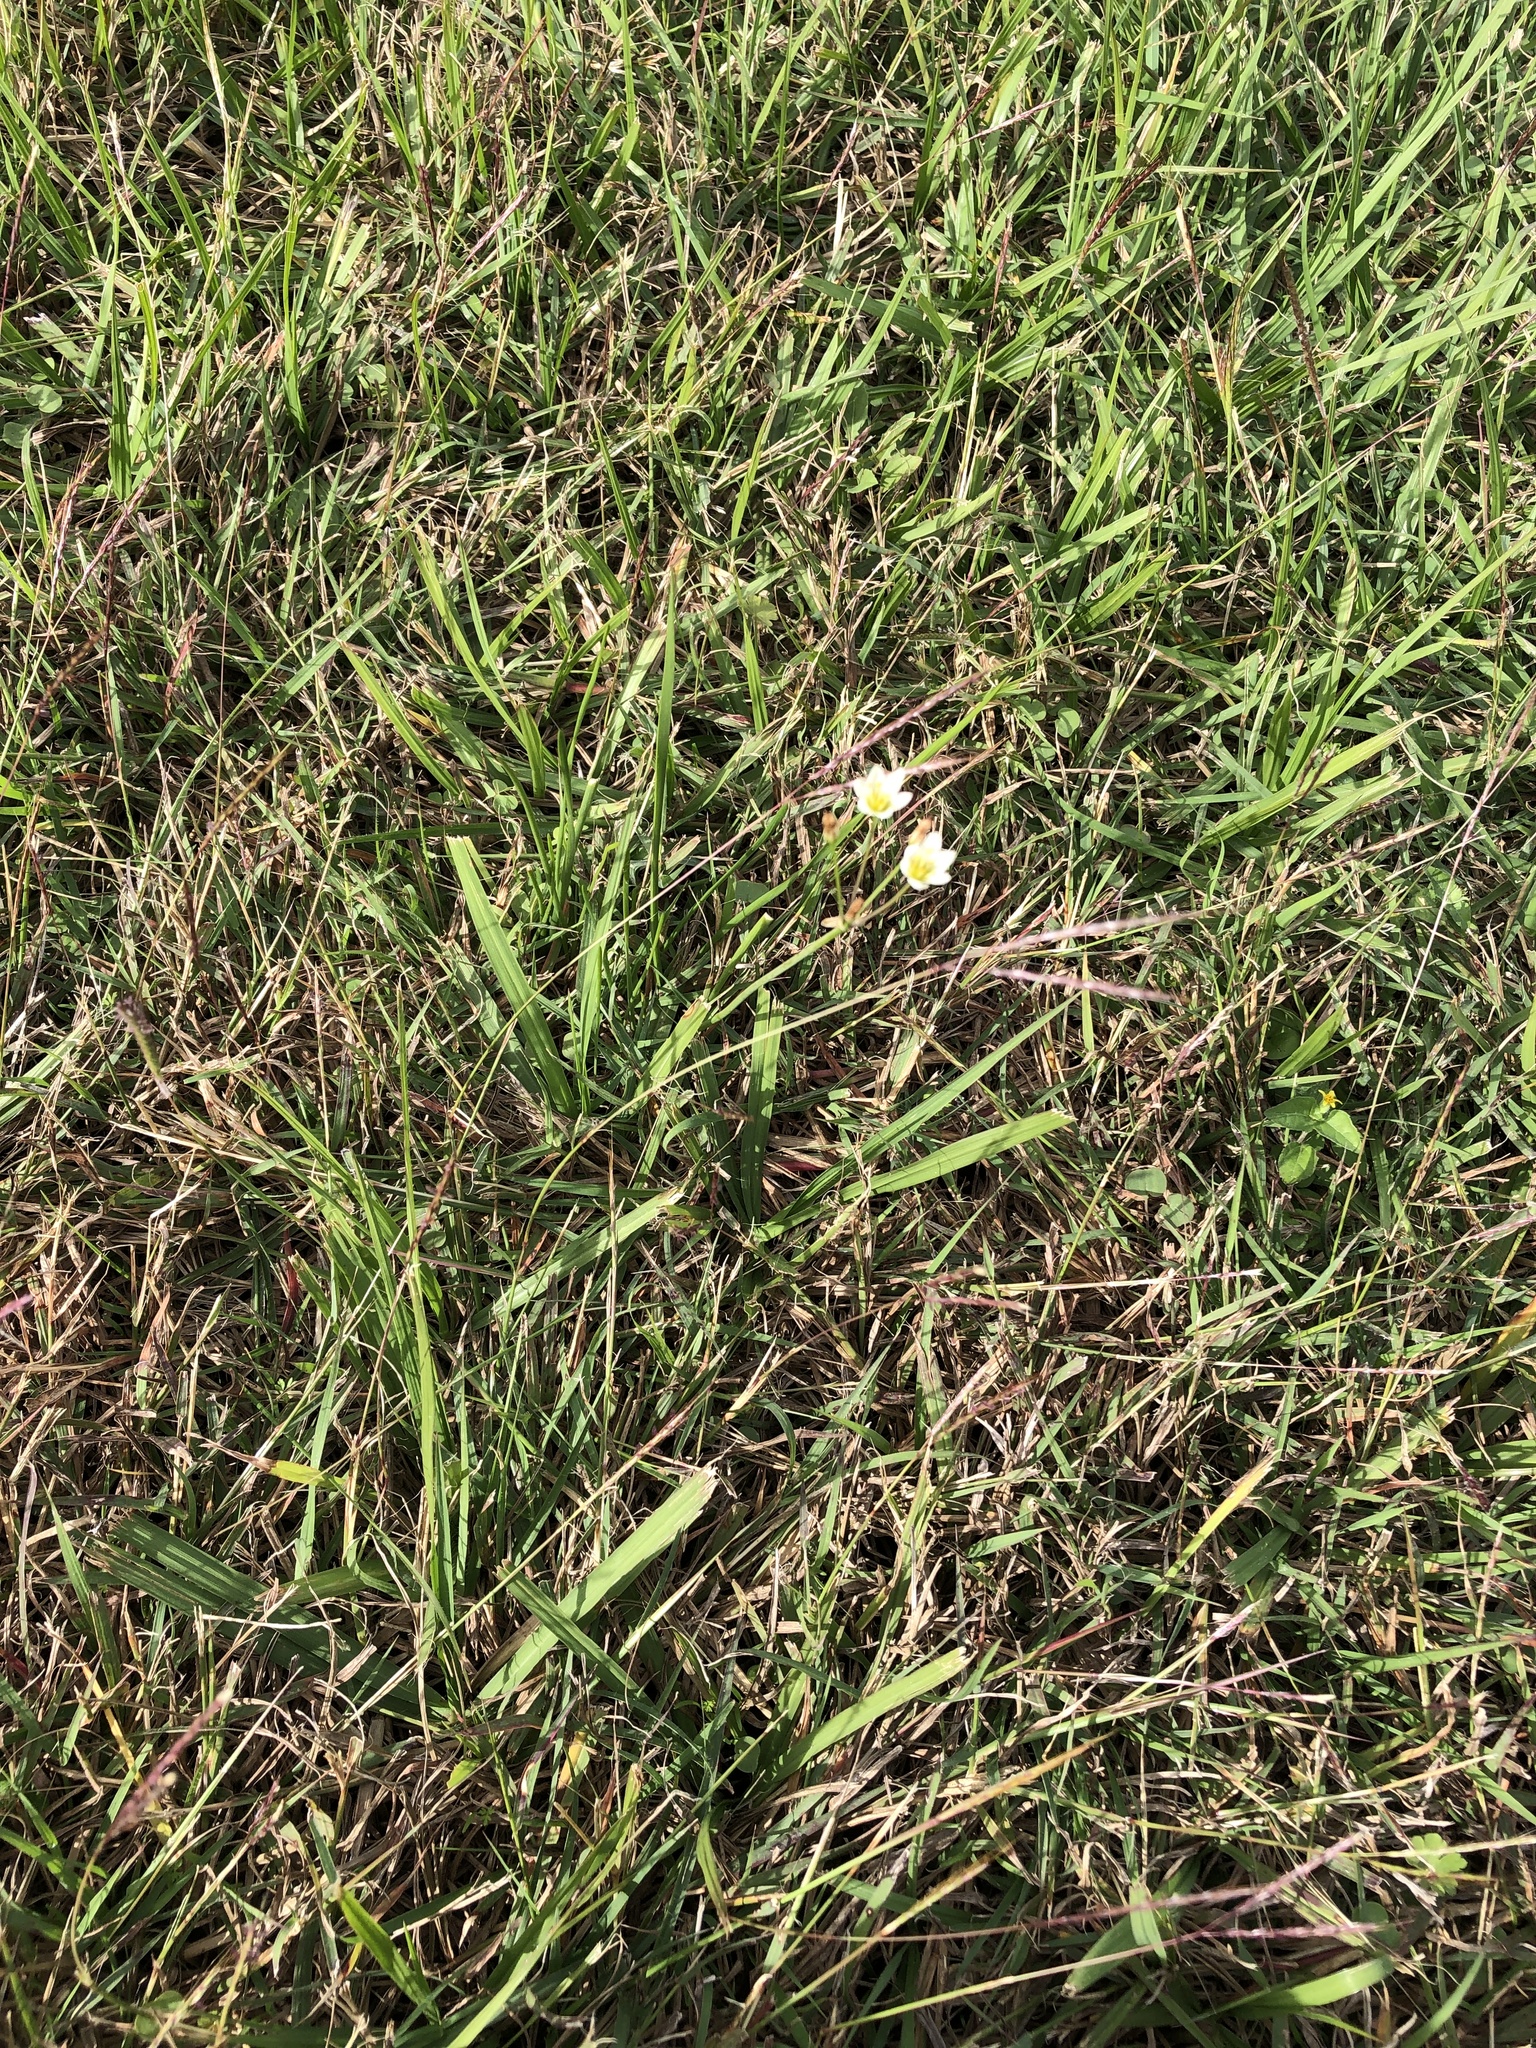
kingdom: Plantae
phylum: Tracheophyta
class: Liliopsida
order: Asparagales
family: Amaryllidaceae
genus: Nothoscordum
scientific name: Nothoscordum bivalve
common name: Crow-poison
